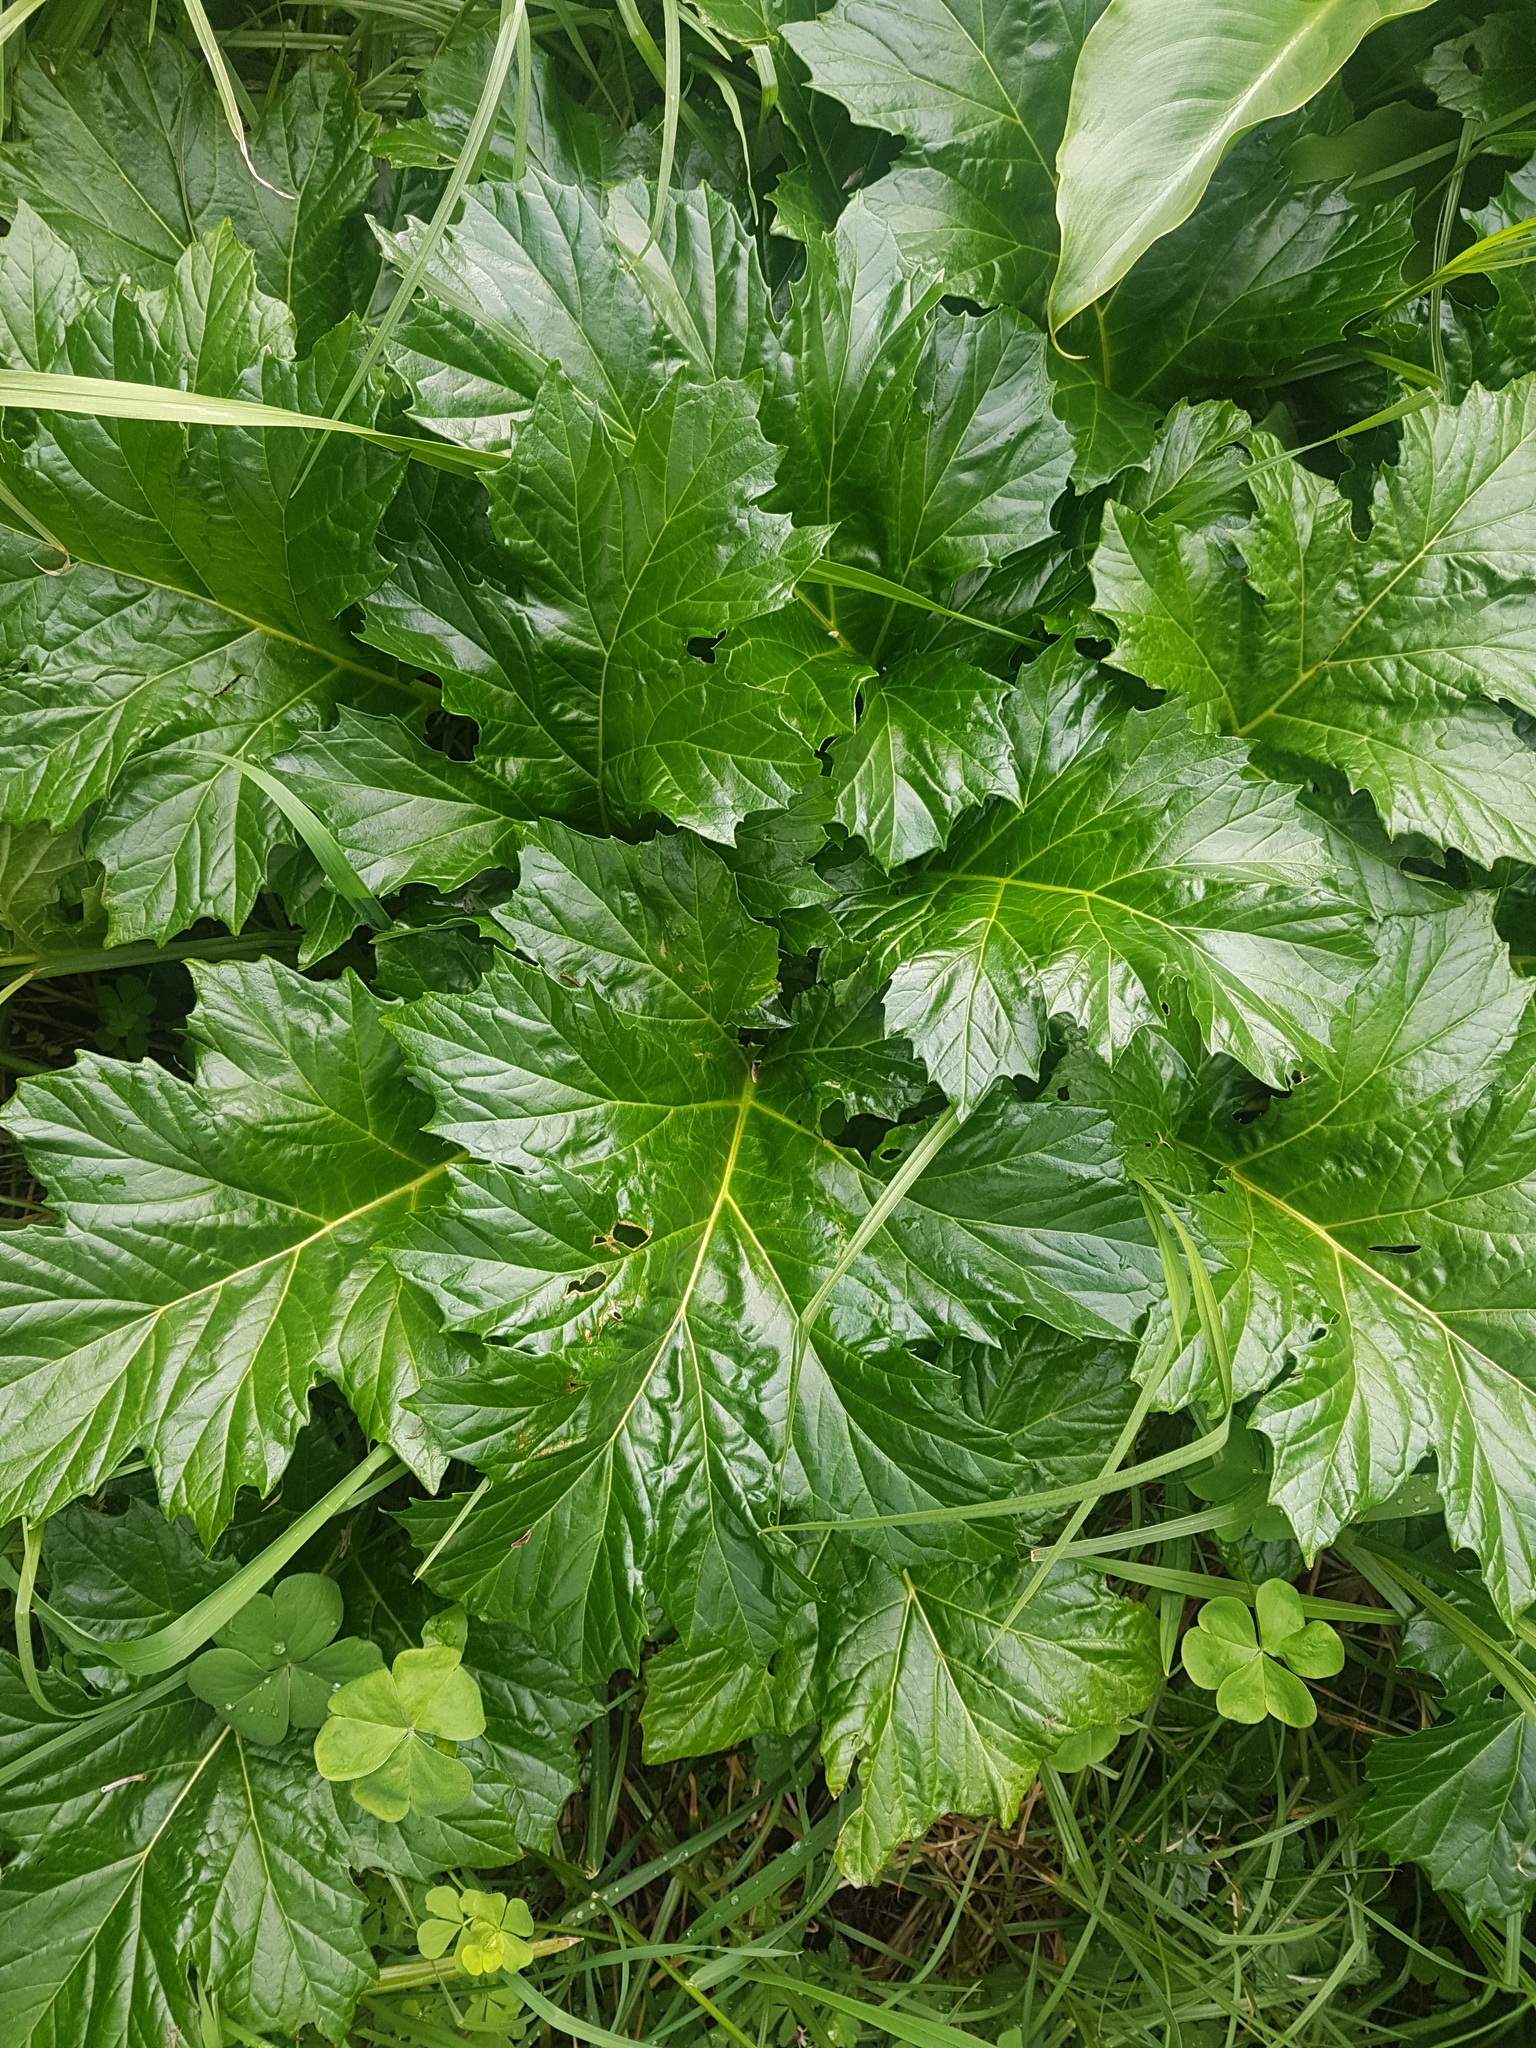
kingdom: Plantae
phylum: Tracheophyta
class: Magnoliopsida
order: Lamiales
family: Acanthaceae
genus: Acanthus
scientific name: Acanthus mollis
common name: Bear's-breech
